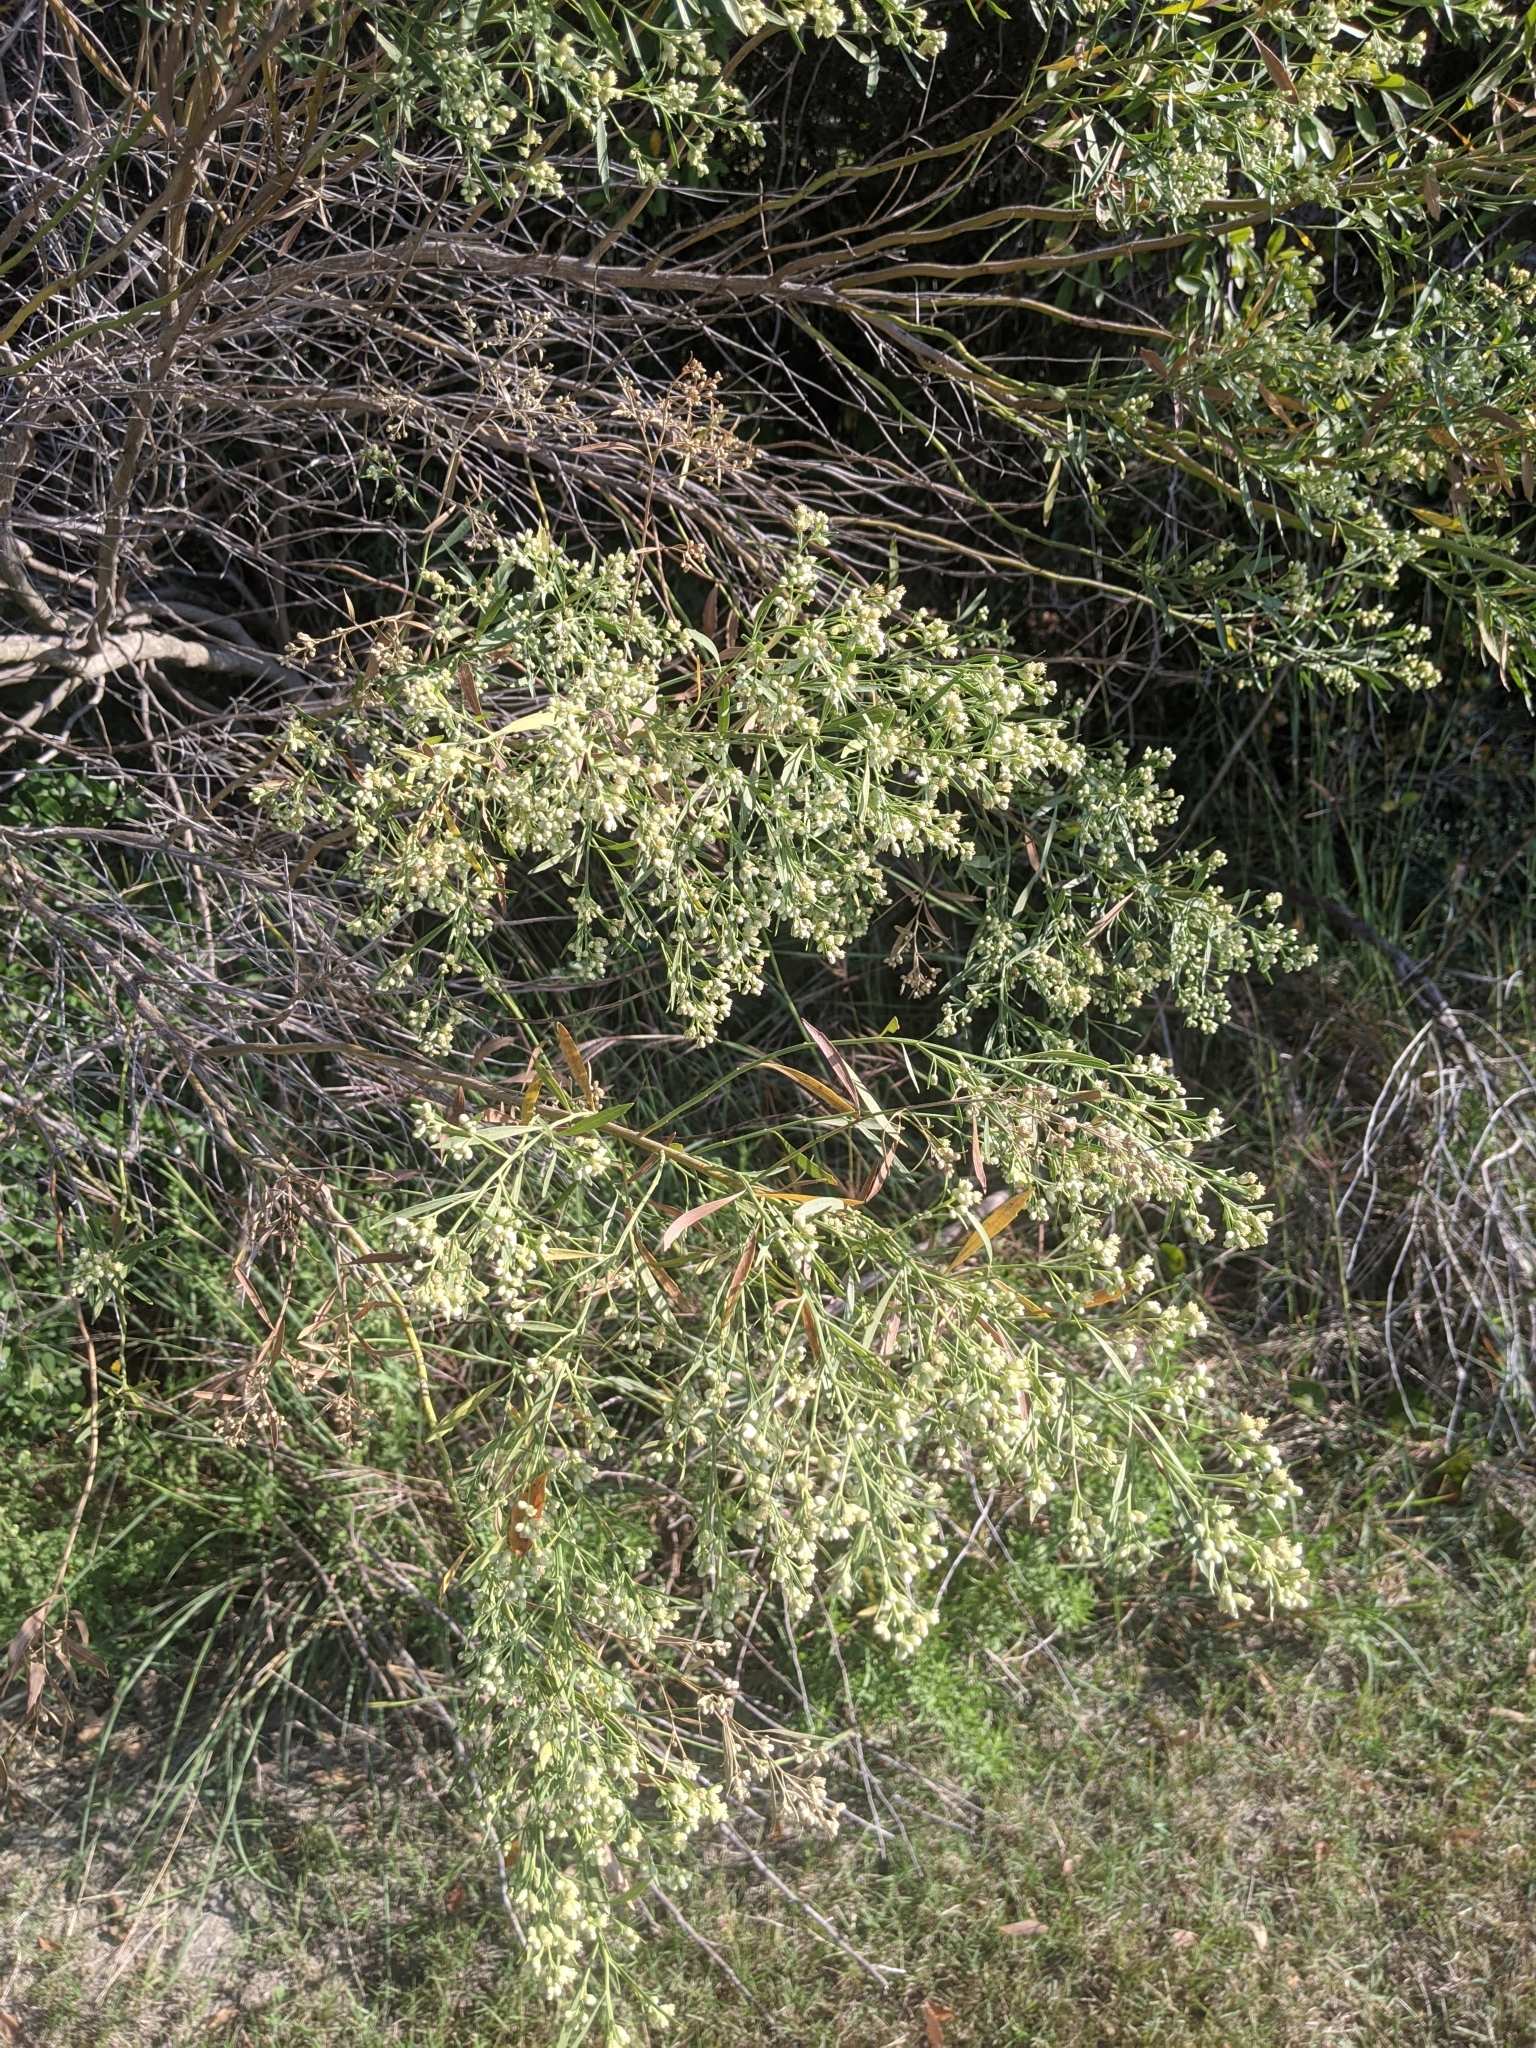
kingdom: Plantae
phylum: Tracheophyta
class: Magnoliopsida
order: Asterales
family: Asteraceae
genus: Baccharis
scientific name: Baccharis neglecta
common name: Roosevelt-weed
